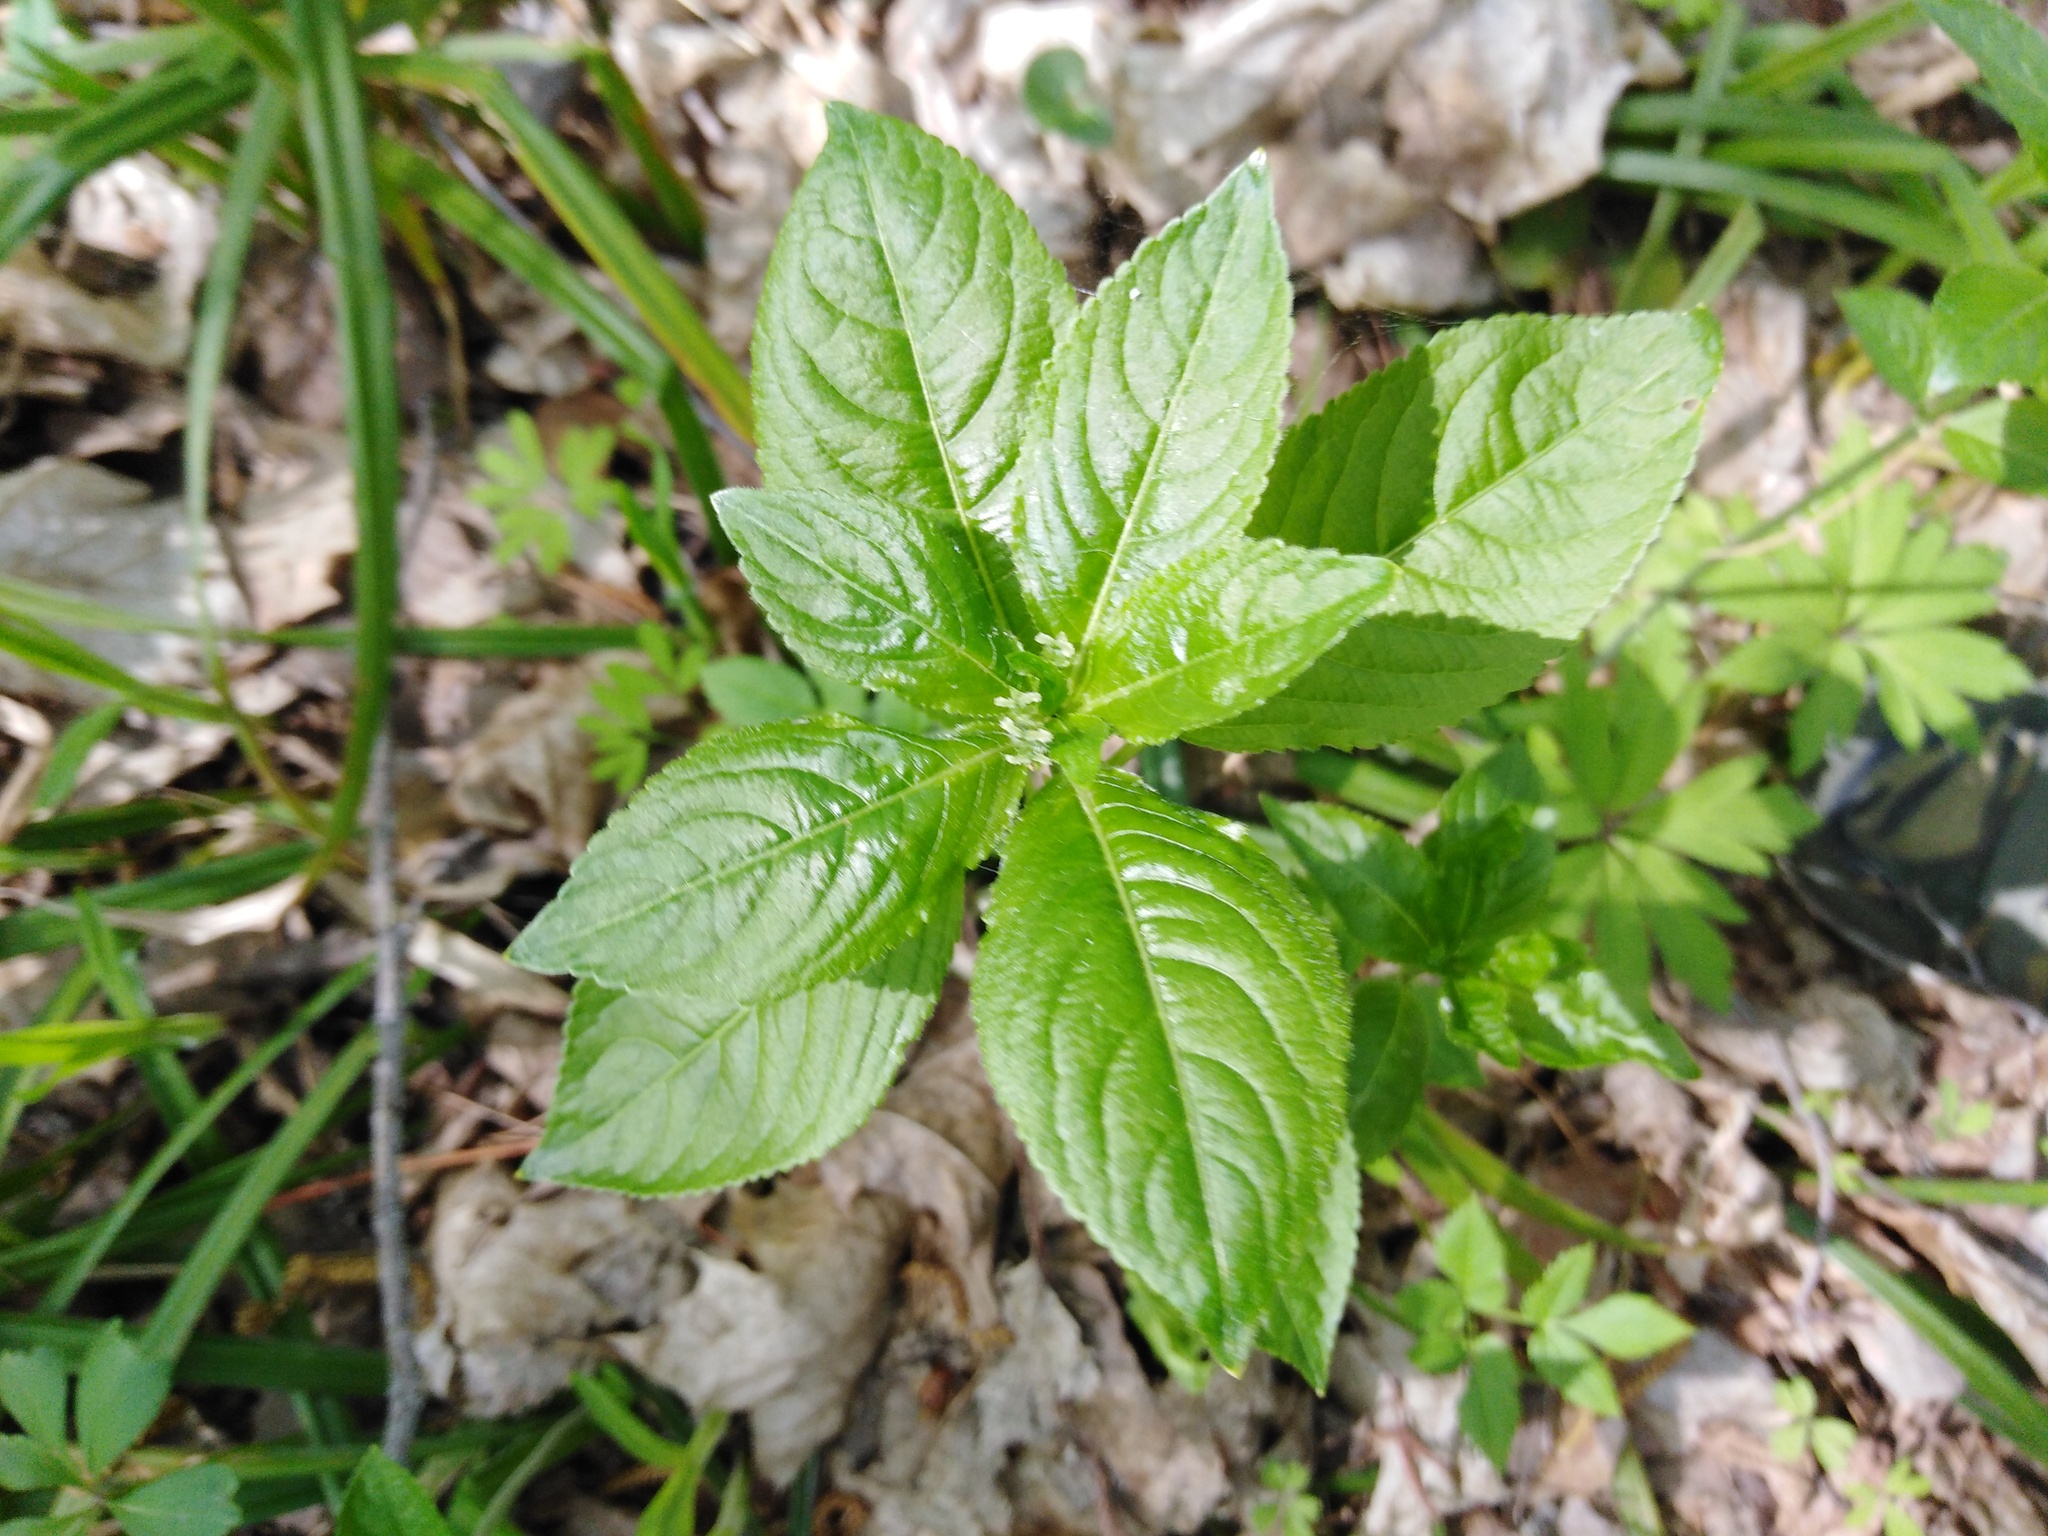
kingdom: Plantae
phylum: Tracheophyta
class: Magnoliopsida
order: Malpighiales
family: Euphorbiaceae
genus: Mercurialis
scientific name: Mercurialis perennis
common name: Dog mercury
